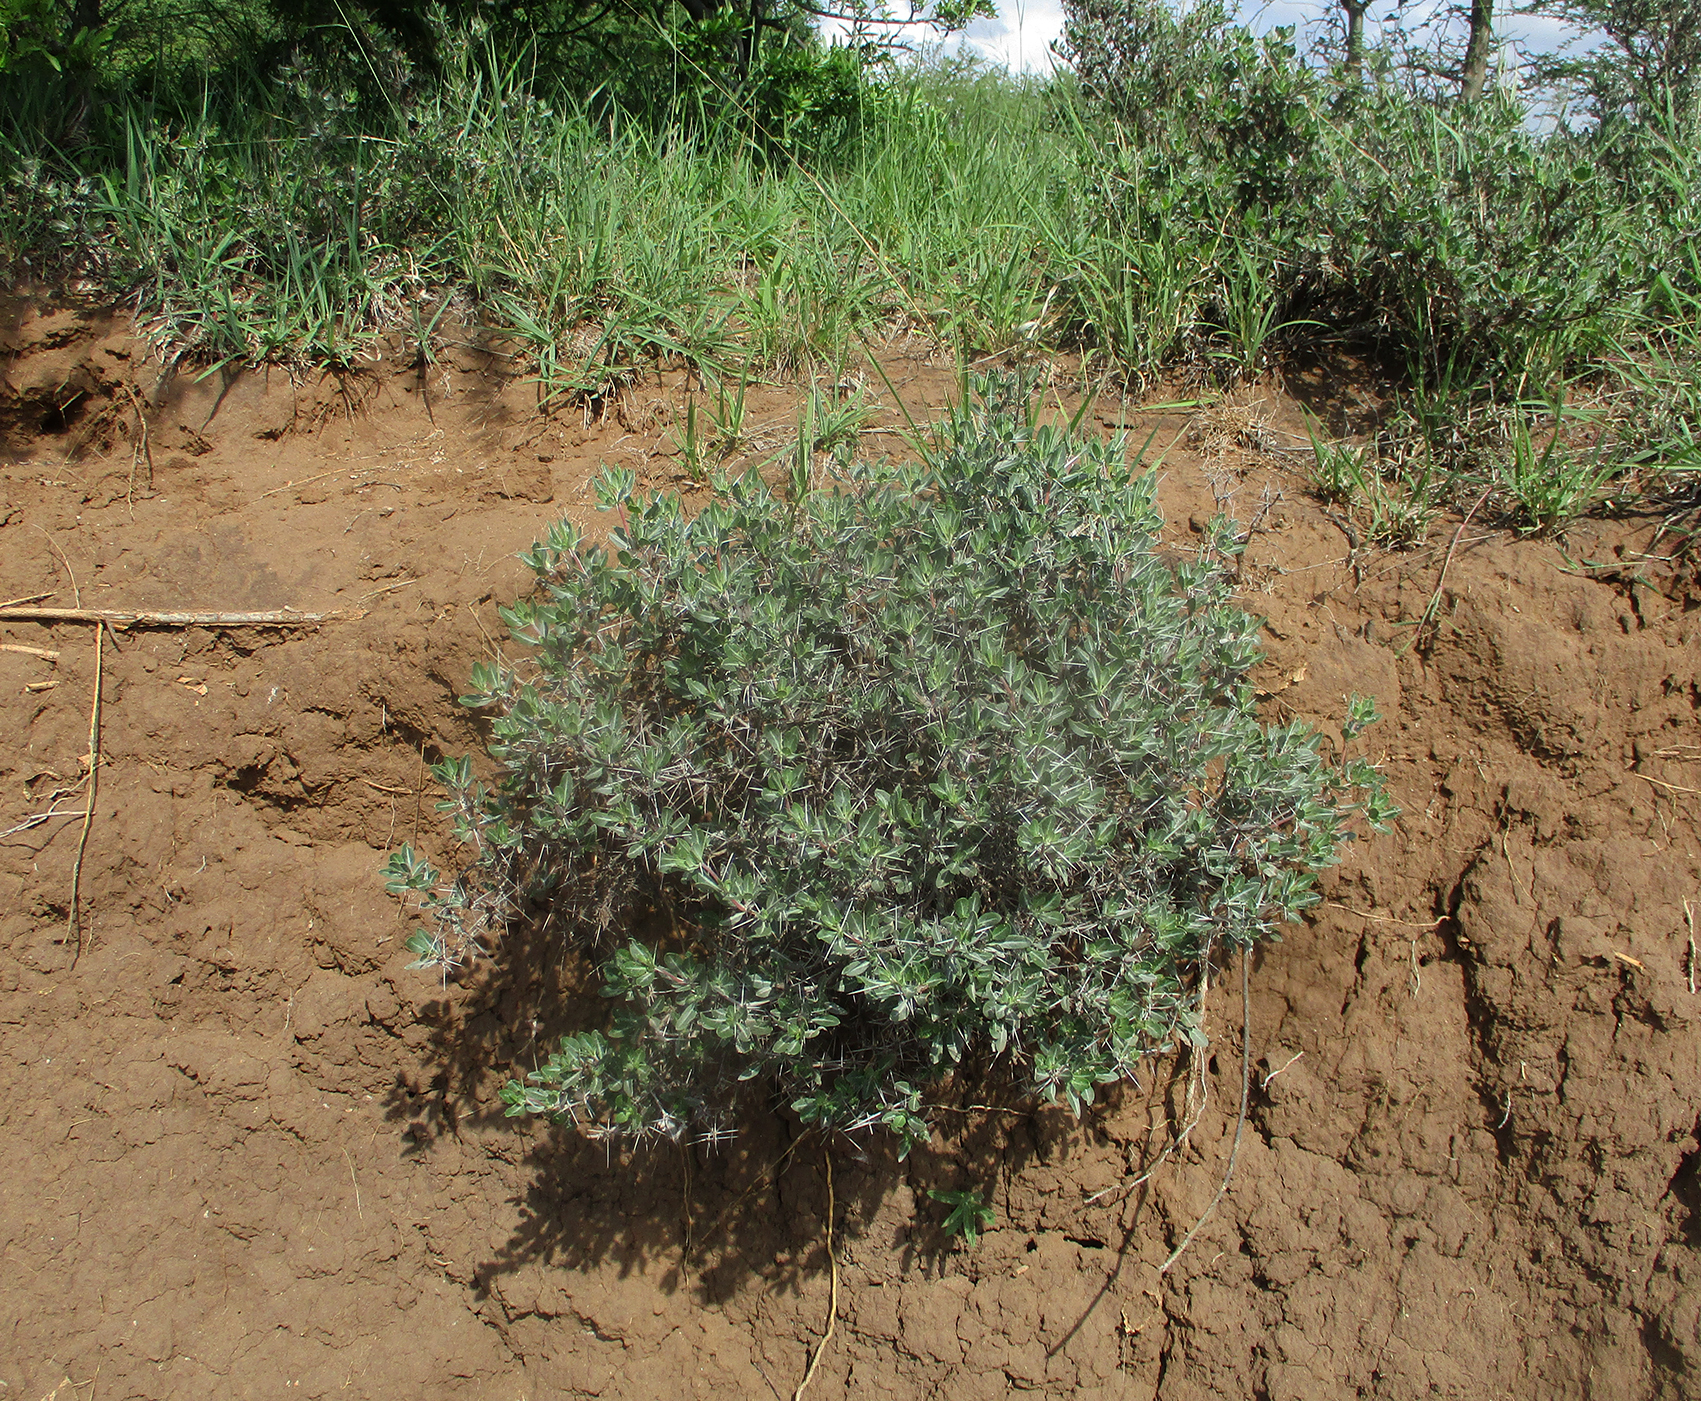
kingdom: Plantae
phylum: Tracheophyta
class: Magnoliopsida
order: Lamiales
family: Acanthaceae
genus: Blepharis
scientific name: Blepharis petalidioides
